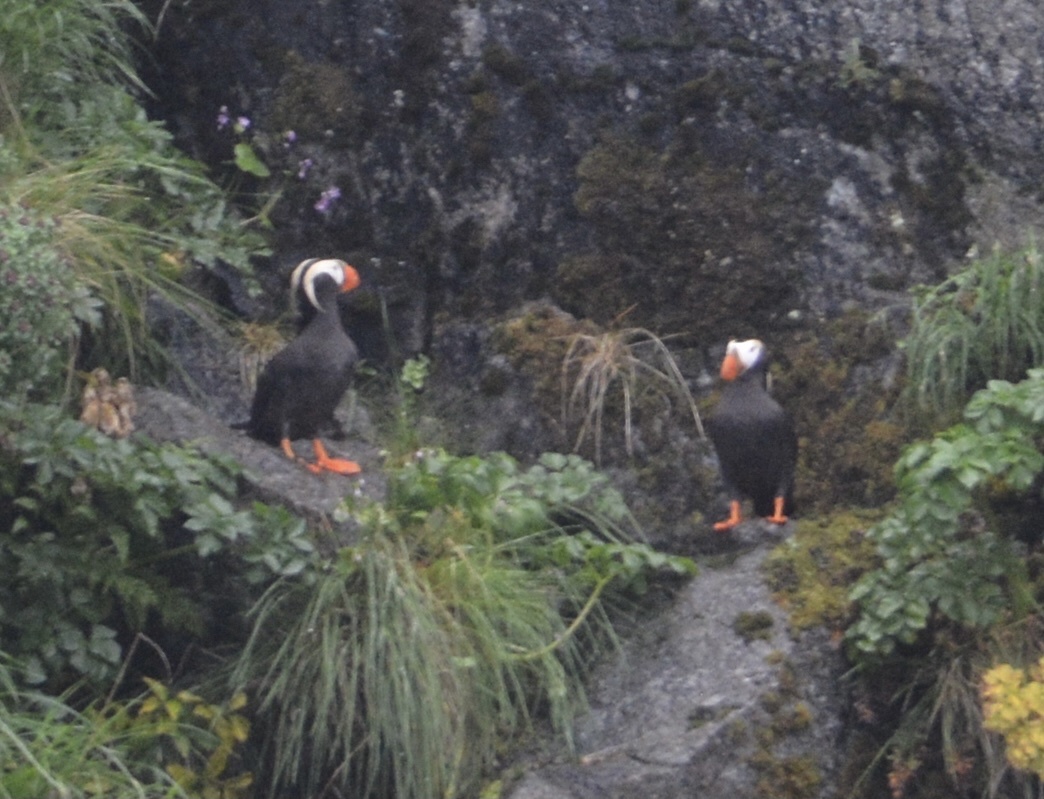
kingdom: Animalia
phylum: Chordata
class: Aves
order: Charadriiformes
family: Alcidae
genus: Fratercula
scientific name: Fratercula cirrhata
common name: Tufted puffin
